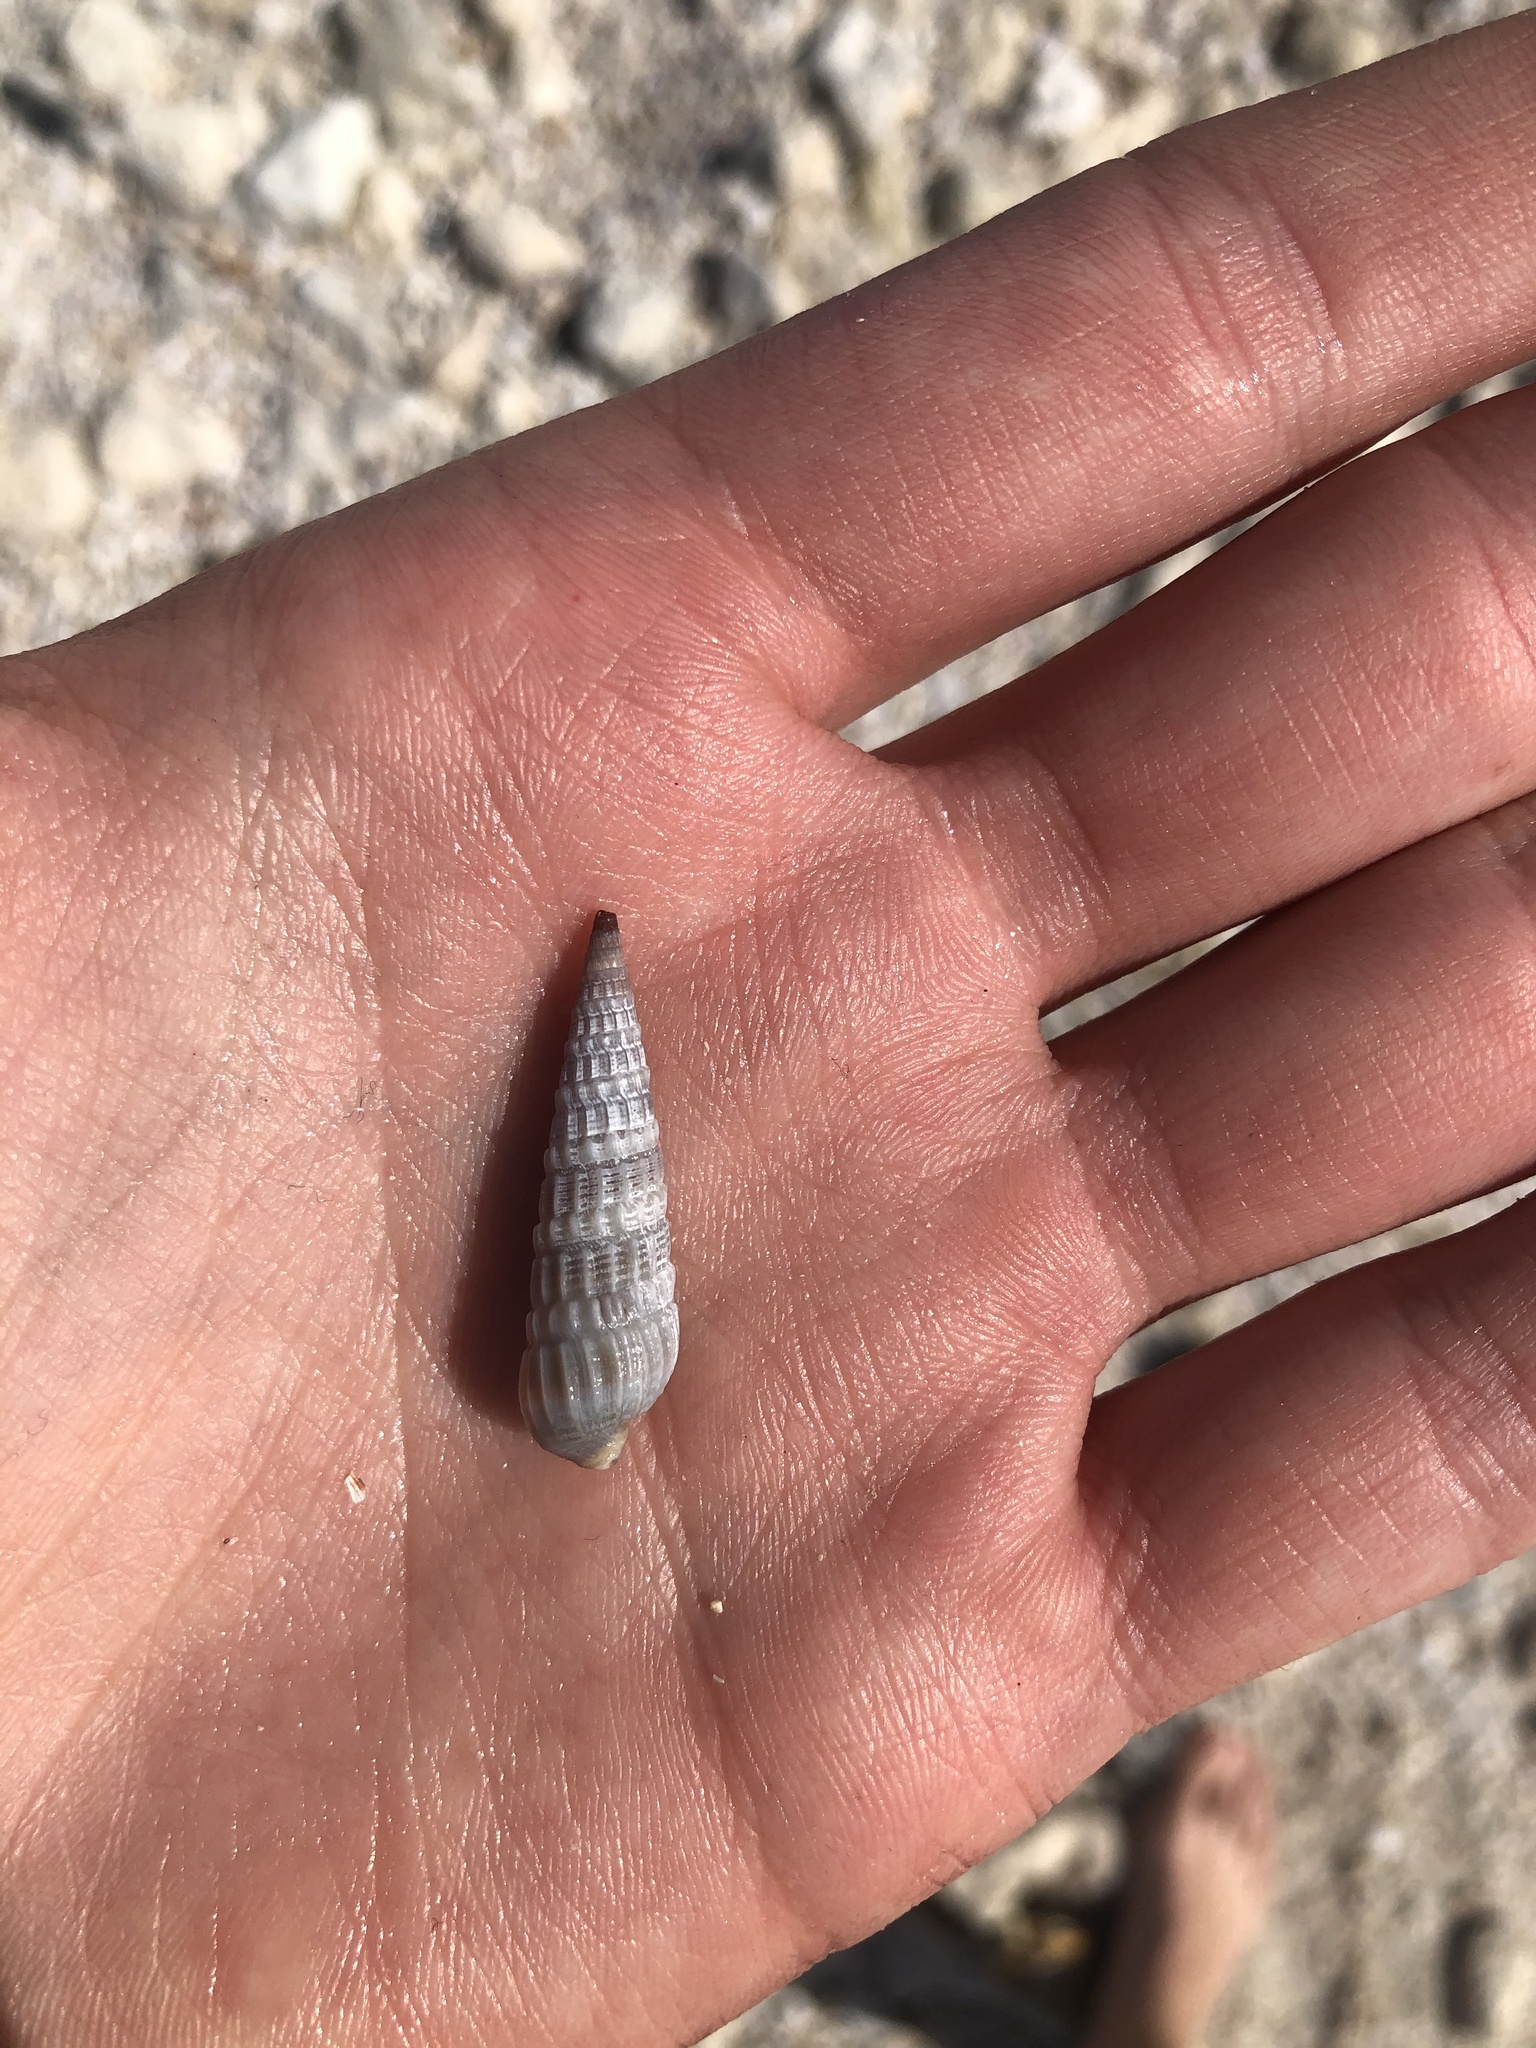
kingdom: Animalia
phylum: Mollusca
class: Gastropoda
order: Neogastropoda
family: Terebridae
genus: Neoterebra
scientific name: Neoterebra dislocata
